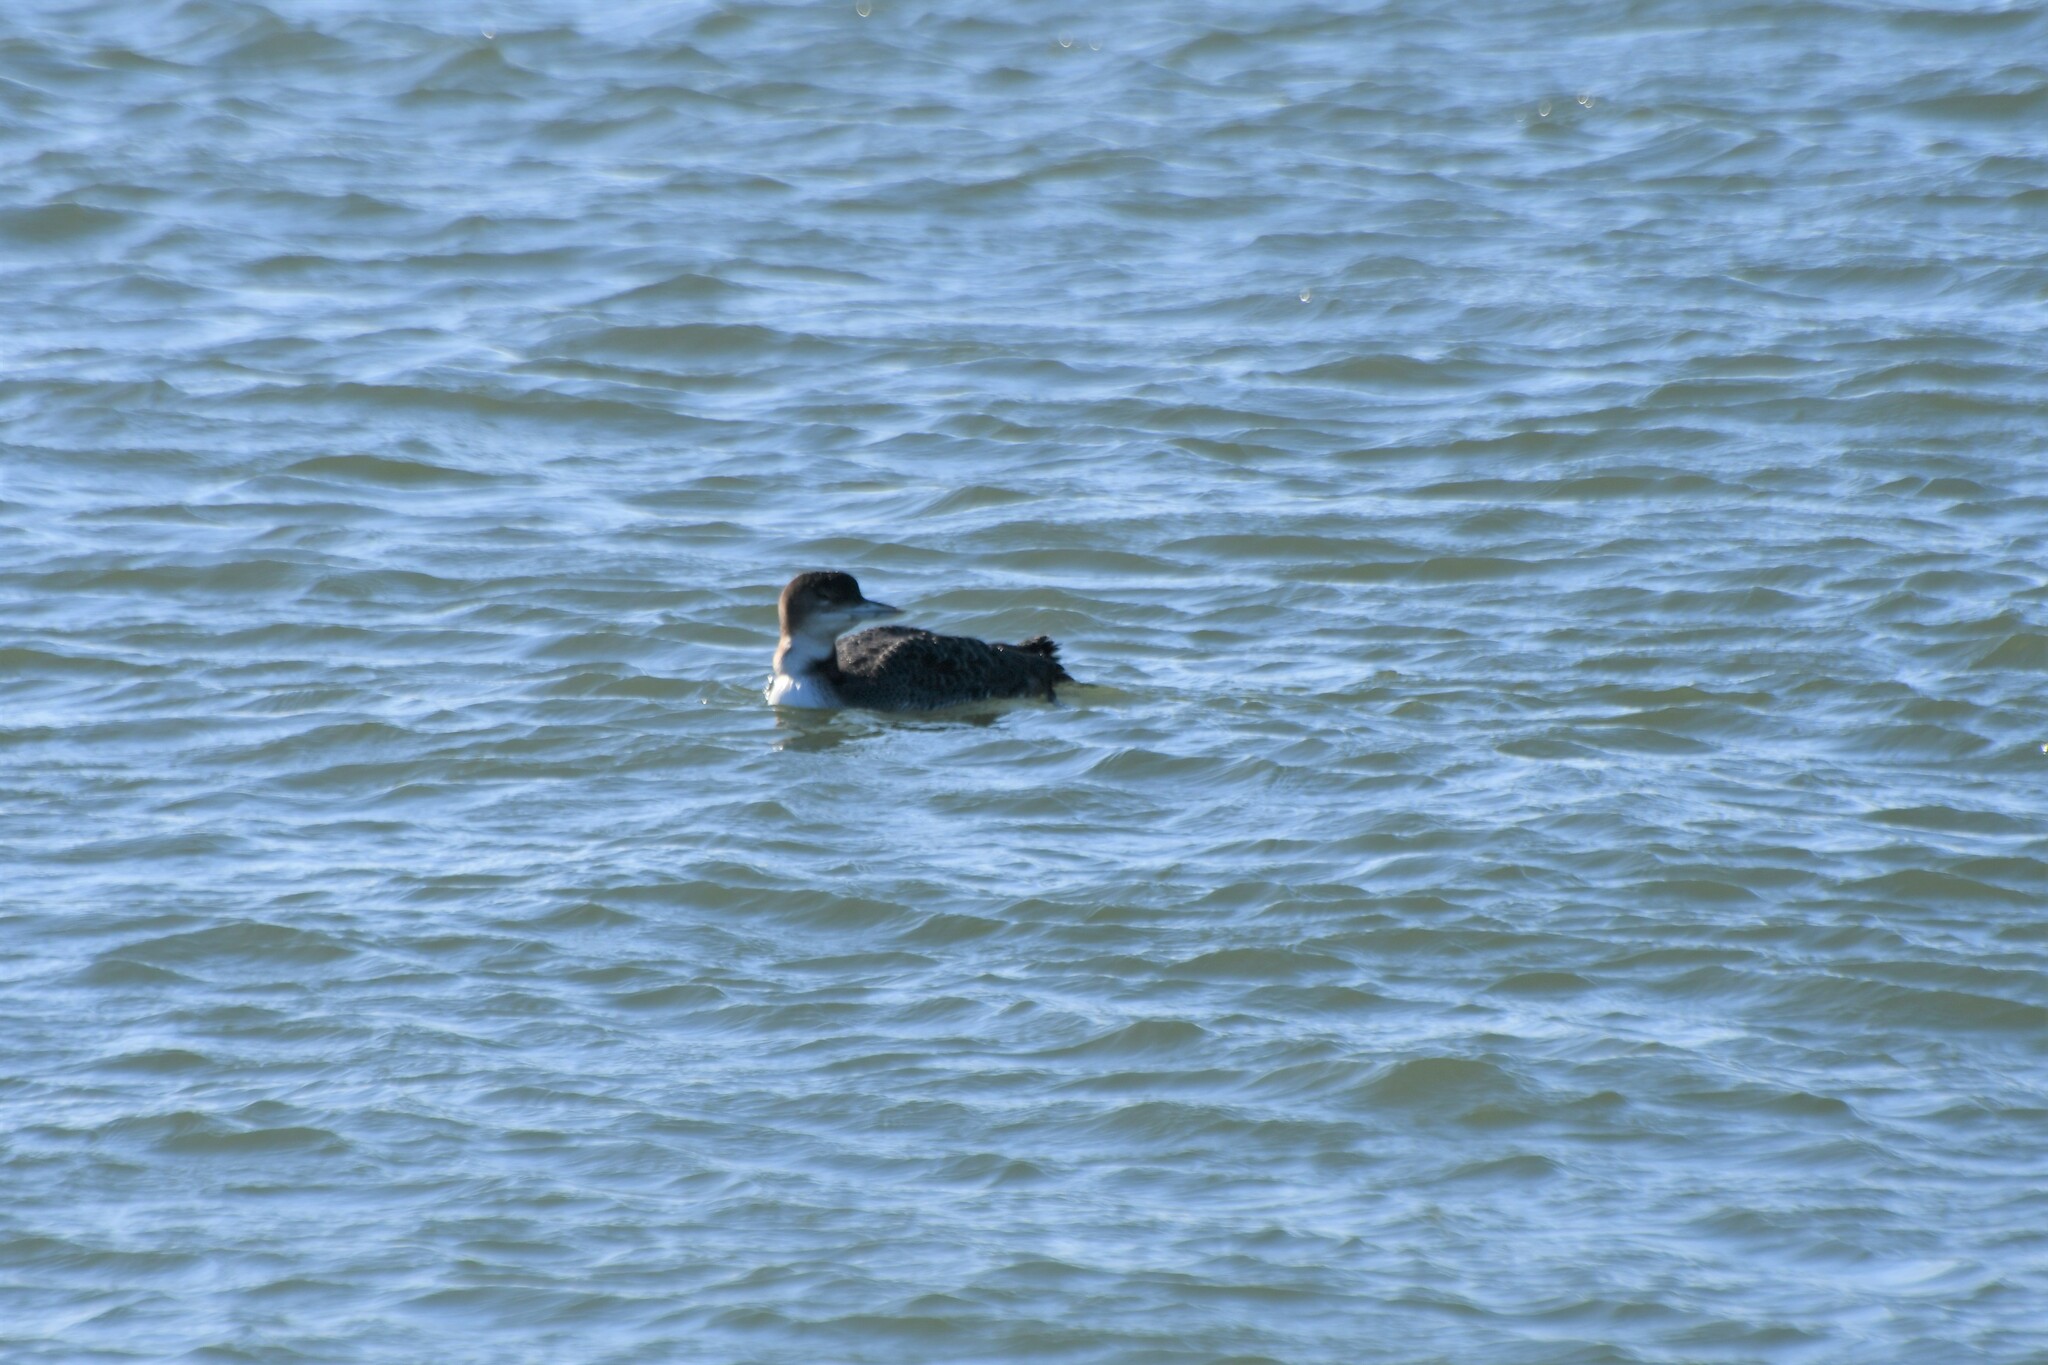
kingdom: Animalia
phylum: Chordata
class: Aves
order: Gaviiformes
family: Gaviidae
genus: Gavia
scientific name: Gavia immer
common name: Common loon
